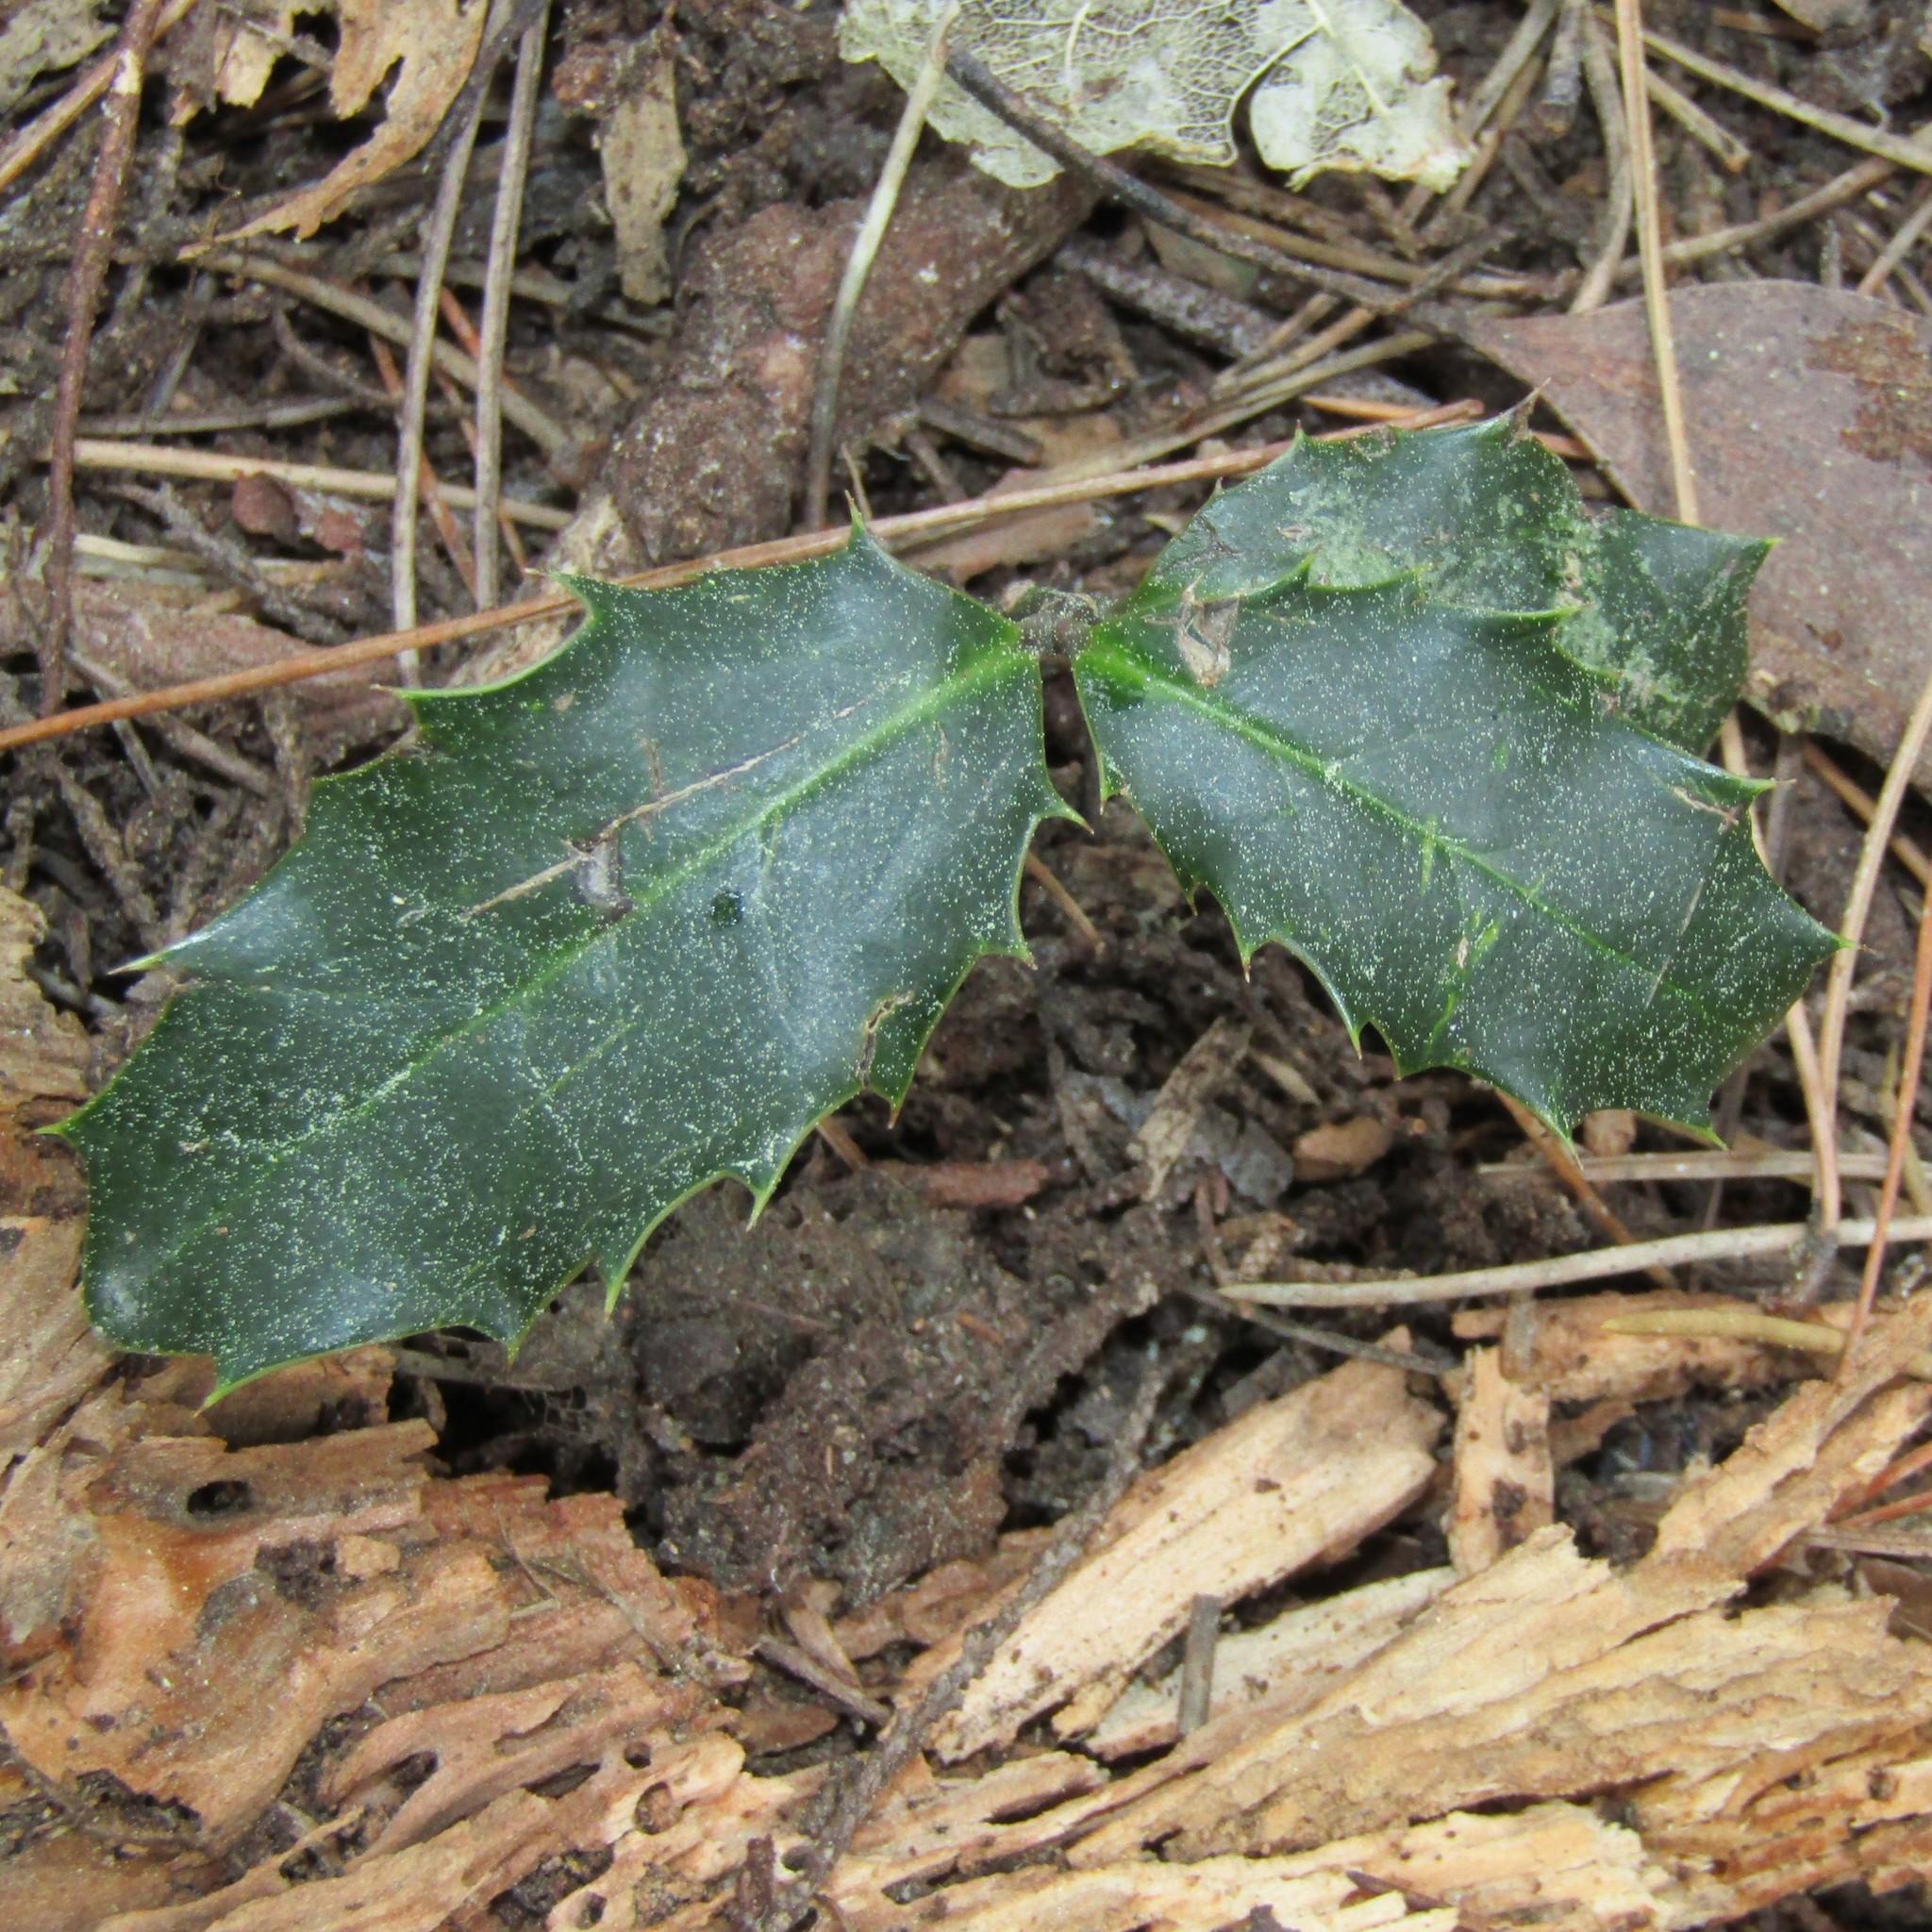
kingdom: Plantae
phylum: Tracheophyta
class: Magnoliopsida
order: Aquifoliales
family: Aquifoliaceae
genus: Ilex
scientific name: Ilex aquifolium
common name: English holly
